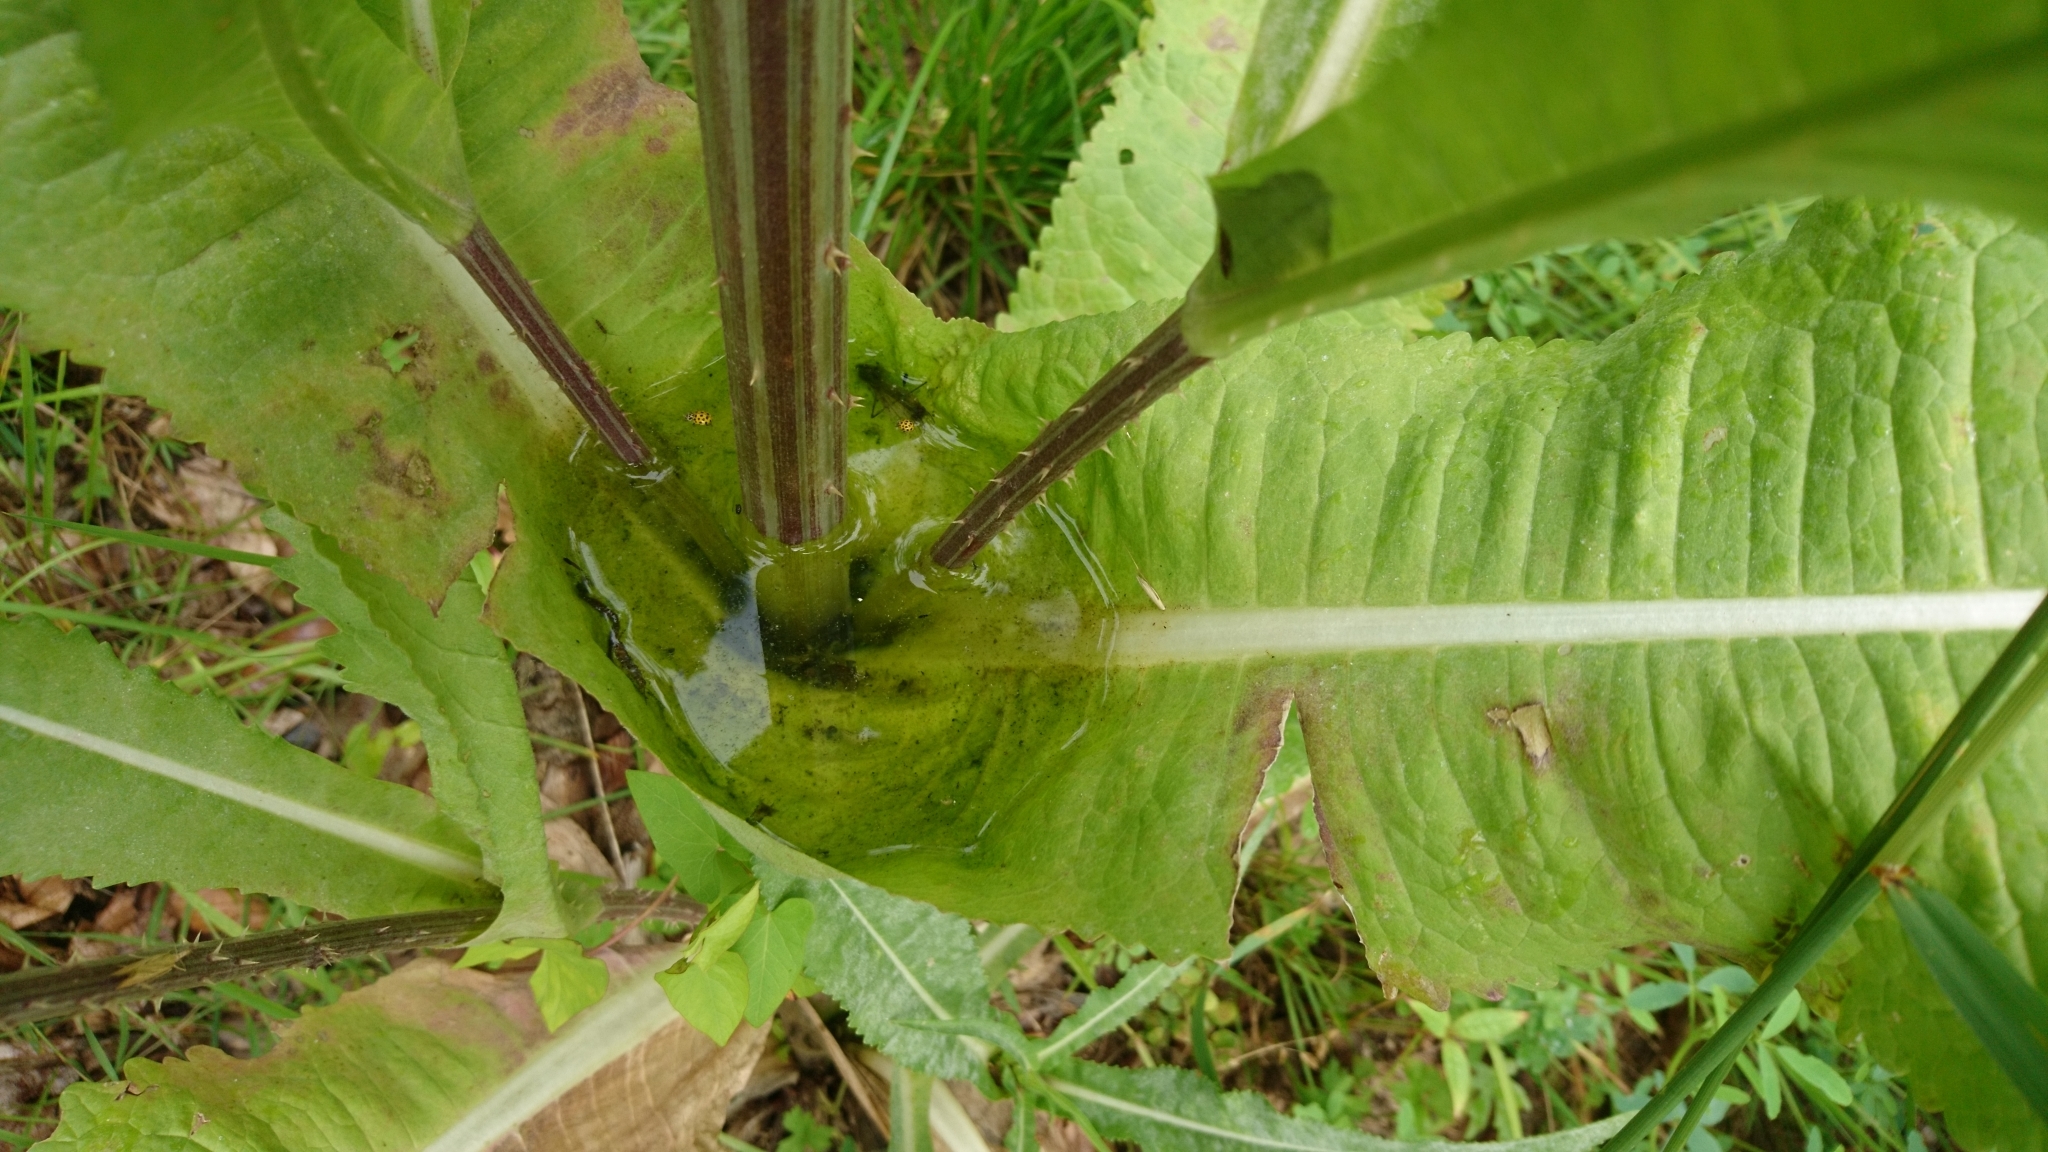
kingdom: Plantae
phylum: Tracheophyta
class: Magnoliopsida
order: Dipsacales
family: Caprifoliaceae
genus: Dipsacus
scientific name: Dipsacus fullonum
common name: Teasel
